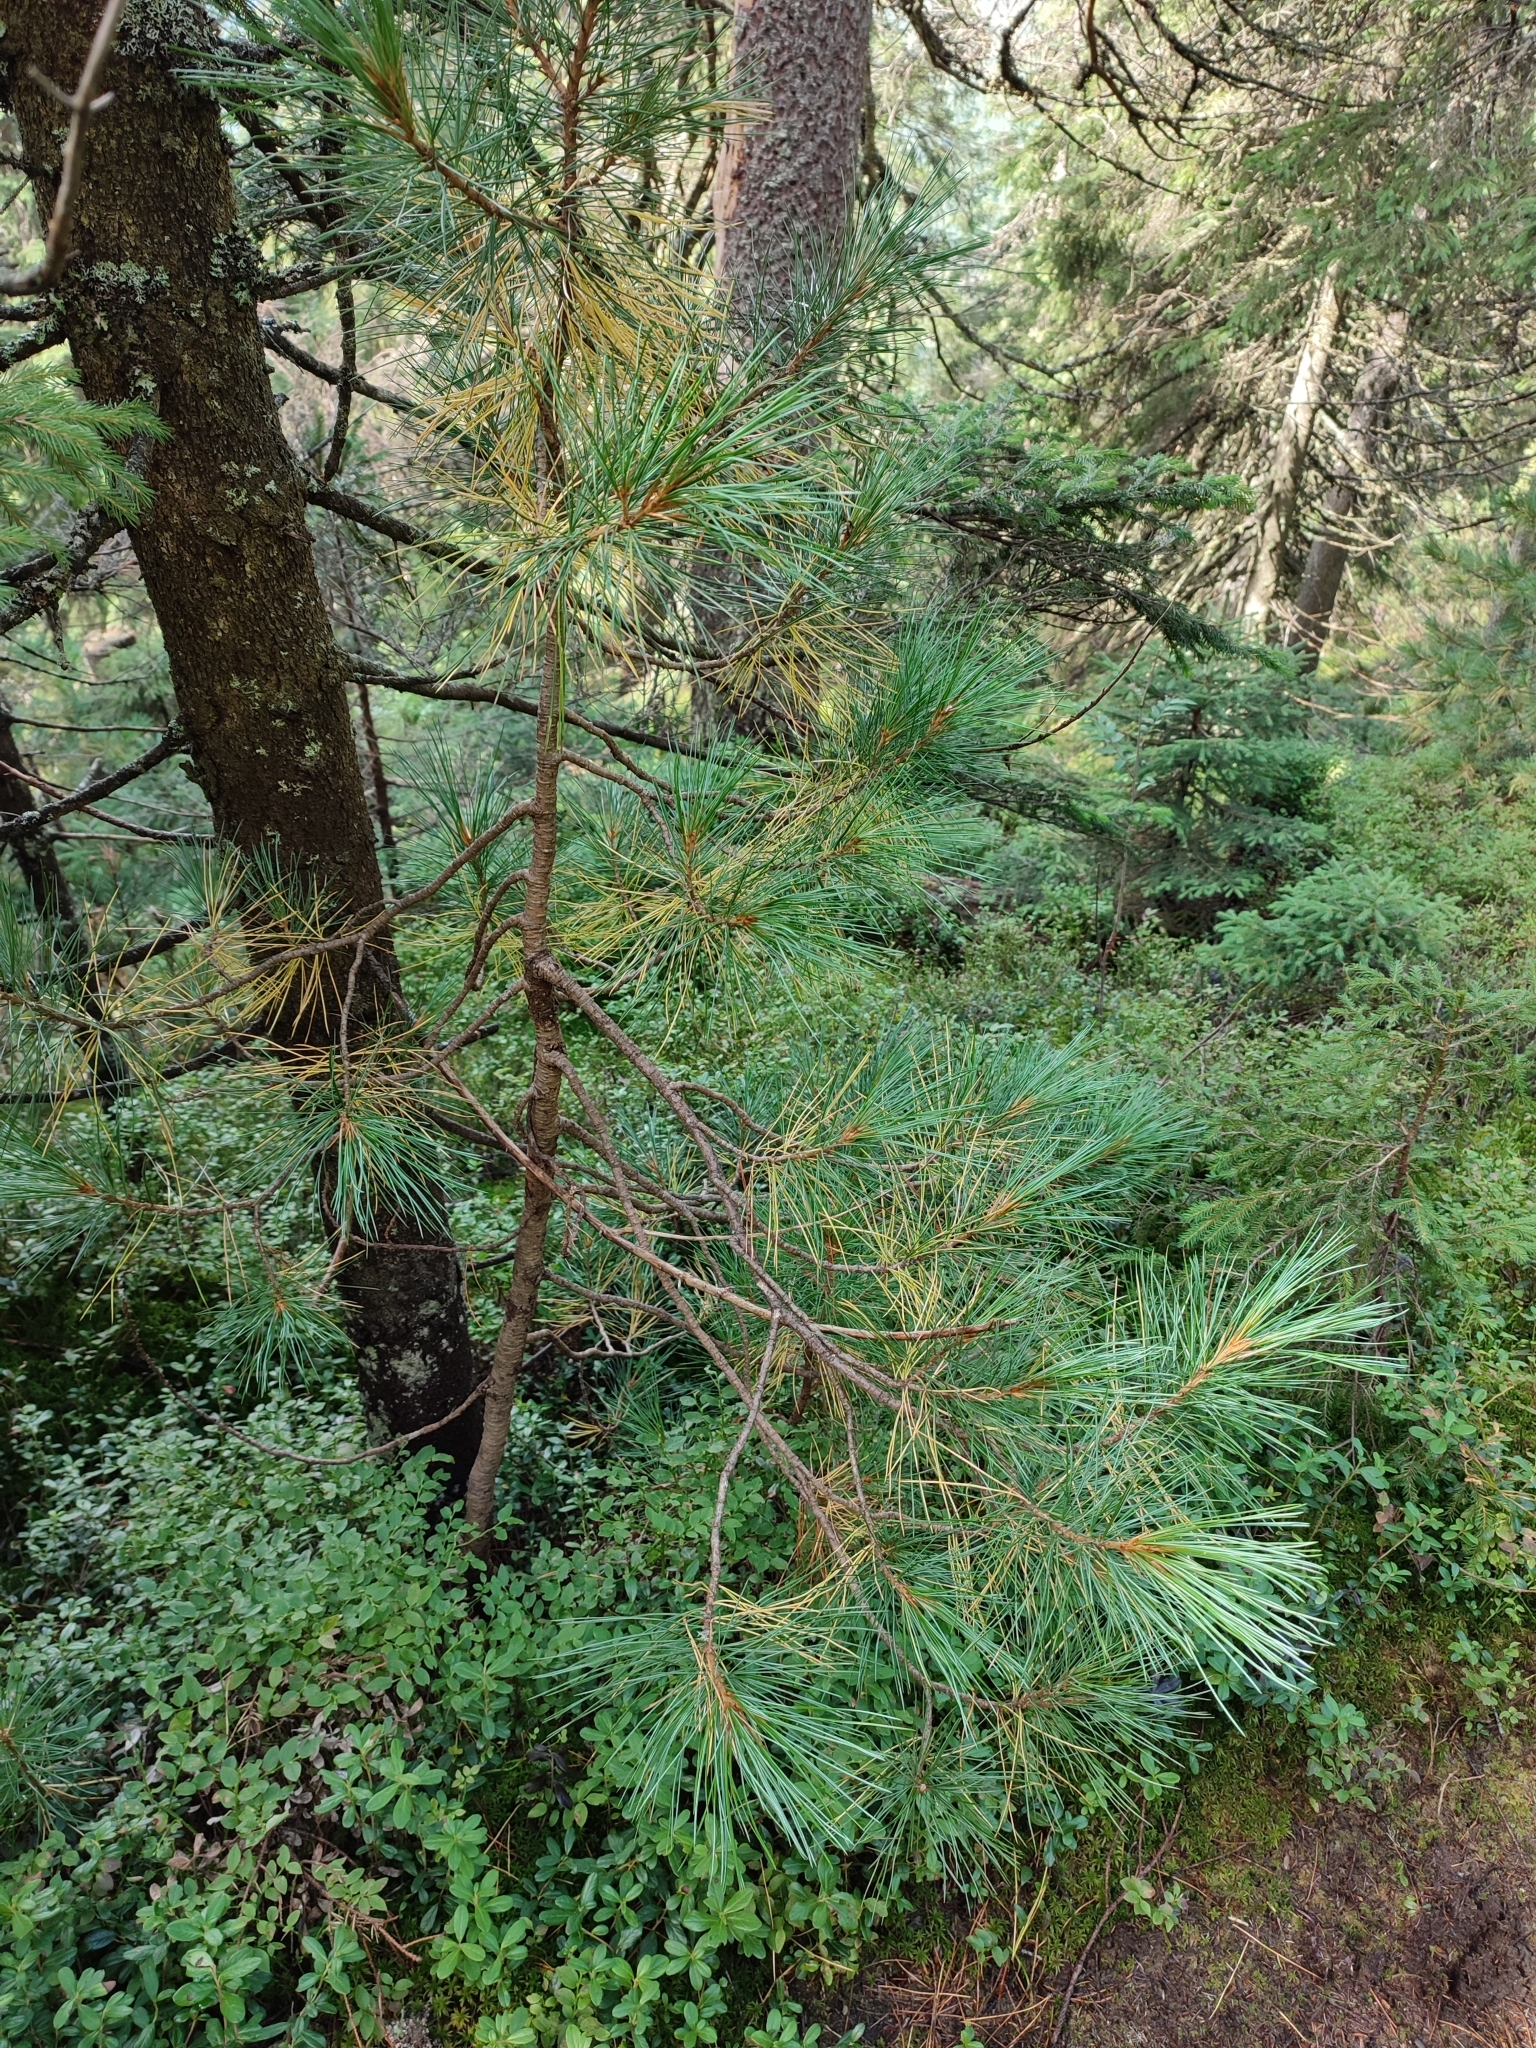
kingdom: Plantae
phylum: Tracheophyta
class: Pinopsida
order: Pinales
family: Pinaceae
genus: Pinus
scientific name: Pinus cembra
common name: Arolla pine
